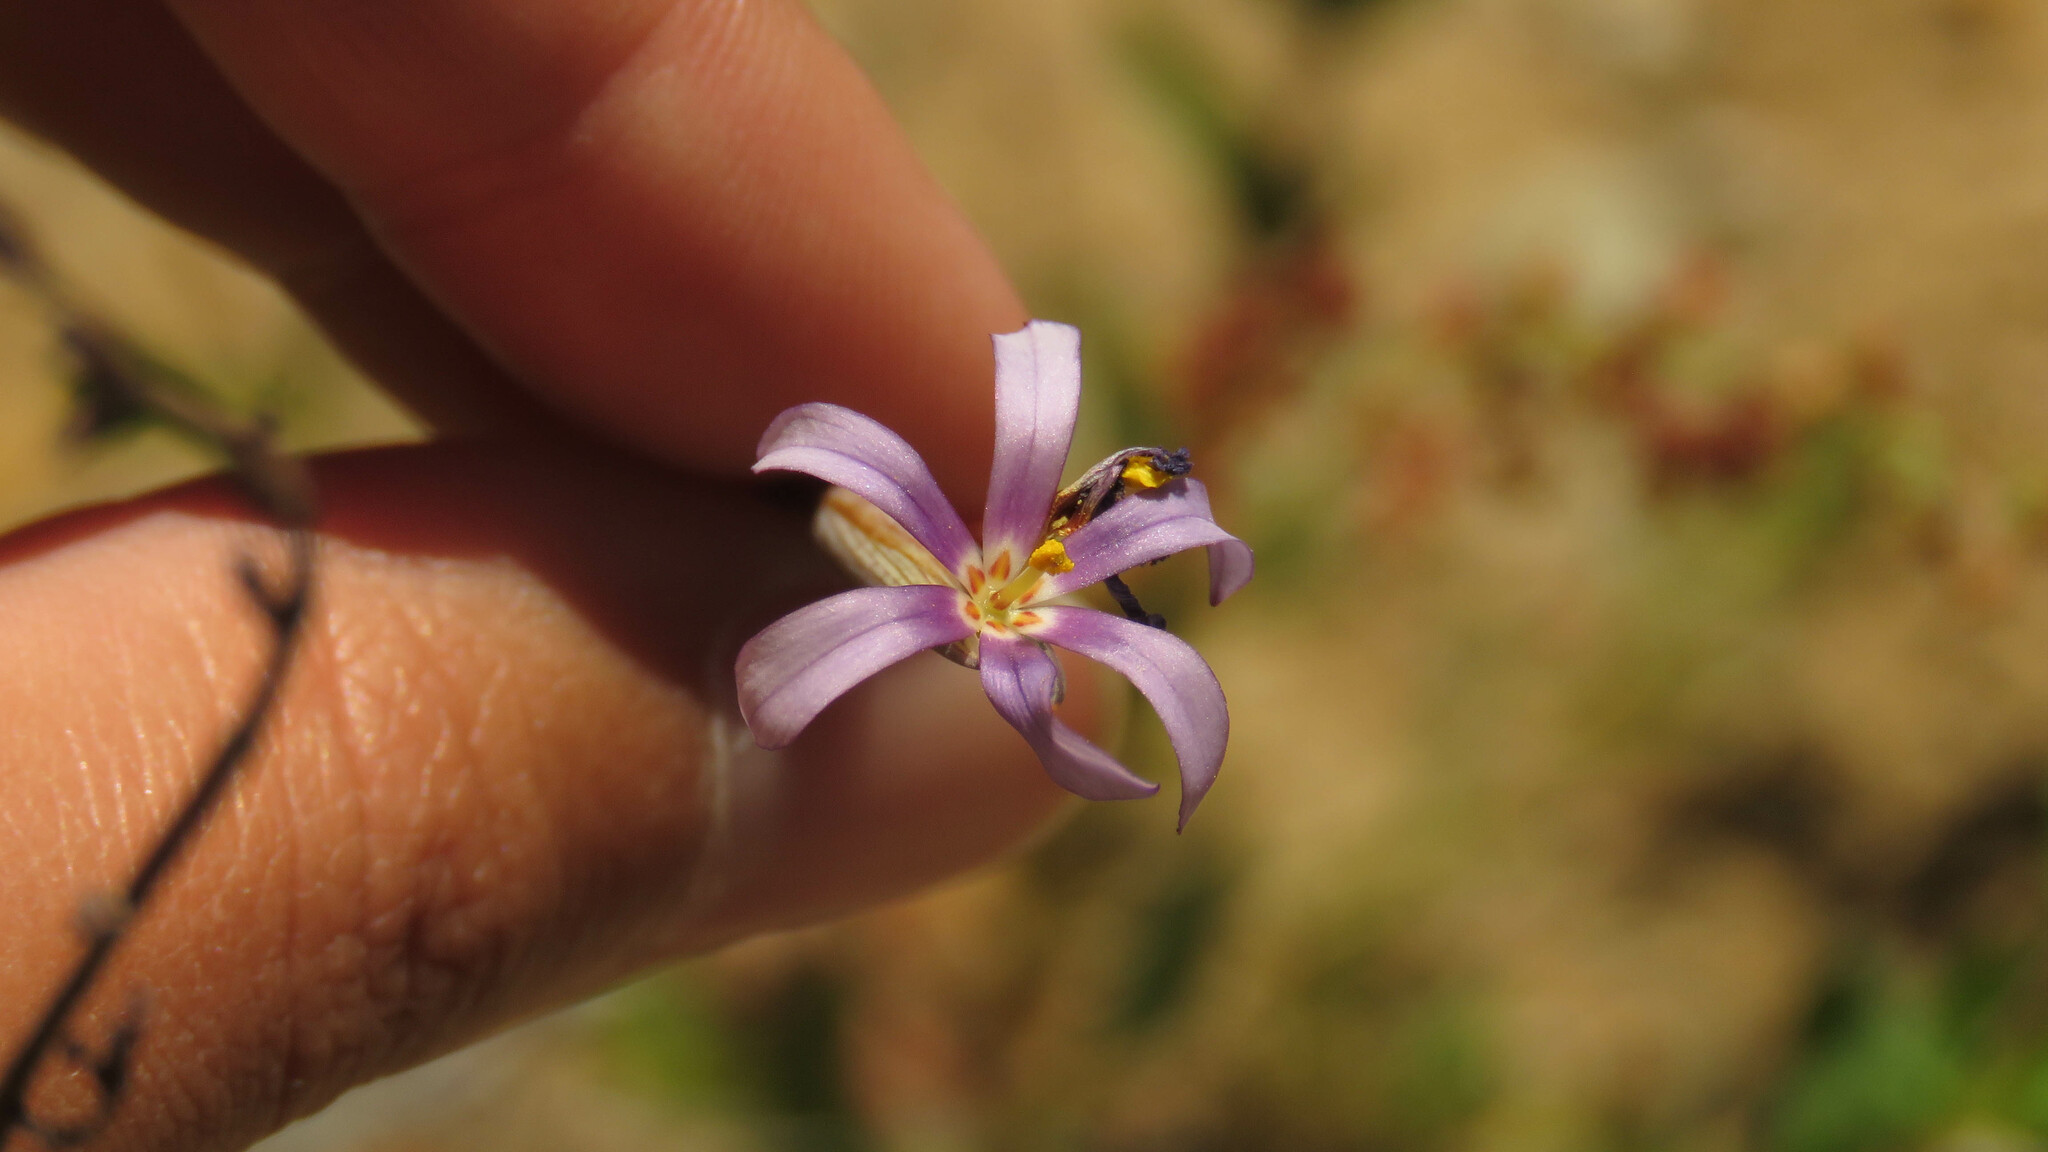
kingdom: Plantae
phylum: Tracheophyta
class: Liliopsida
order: Asparagales
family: Iridaceae
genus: Solenomelus
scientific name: Solenomelus segethi
